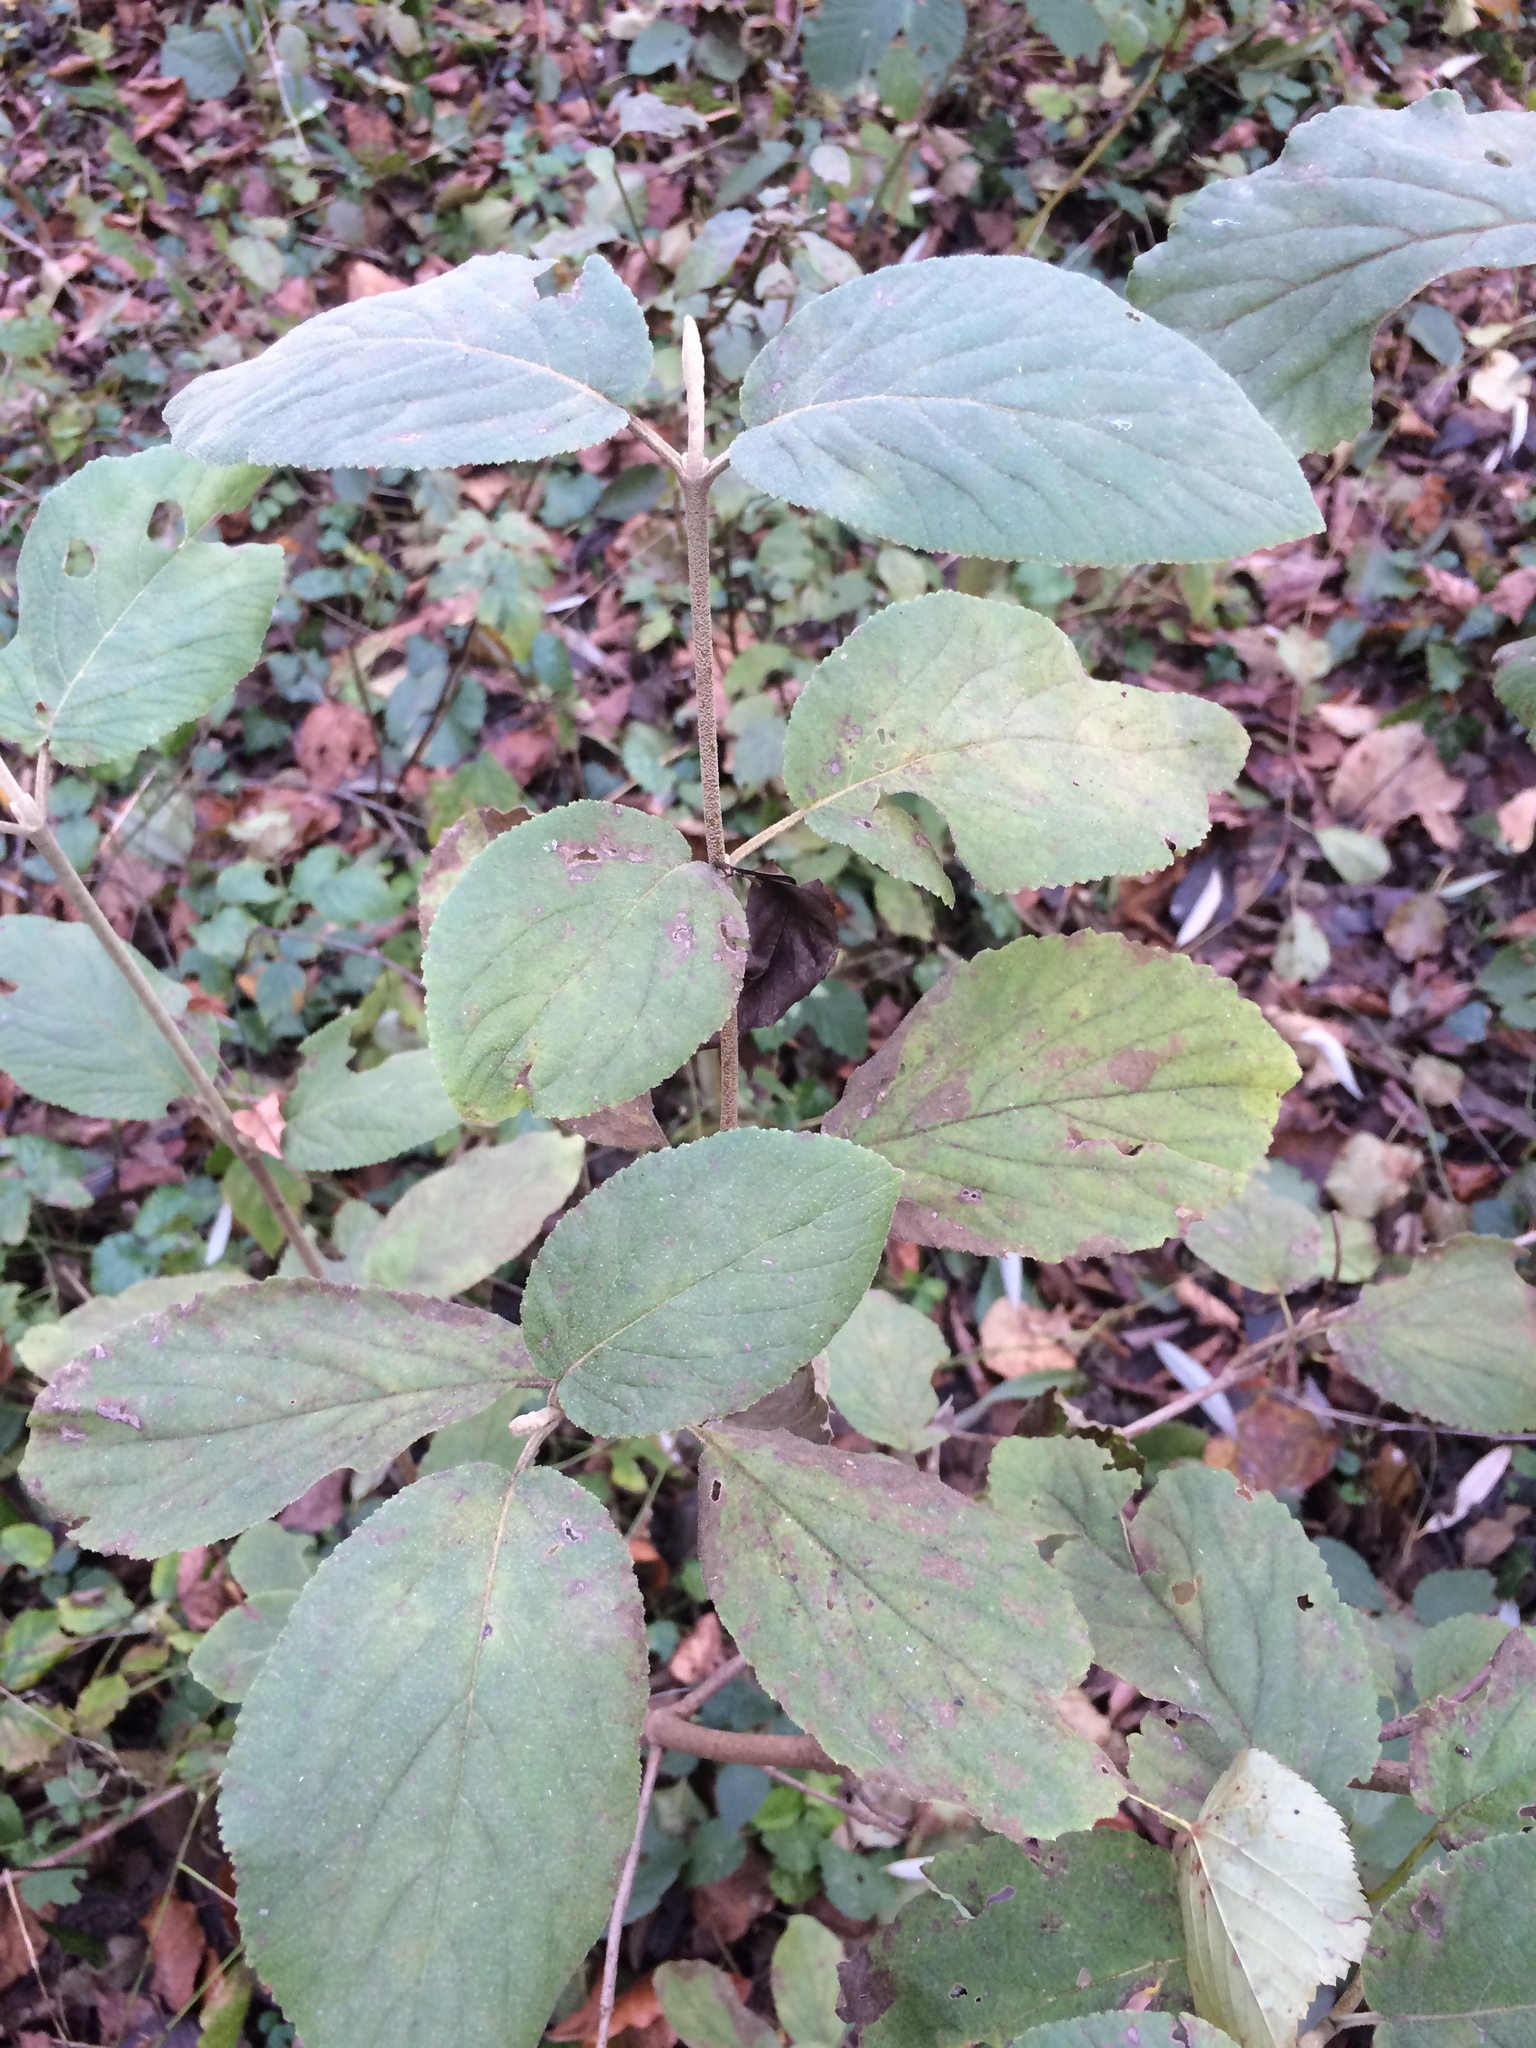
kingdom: Plantae
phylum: Tracheophyta
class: Magnoliopsida
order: Dipsacales
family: Viburnaceae
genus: Viburnum
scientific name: Viburnum lantana
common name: Wayfaring tree
